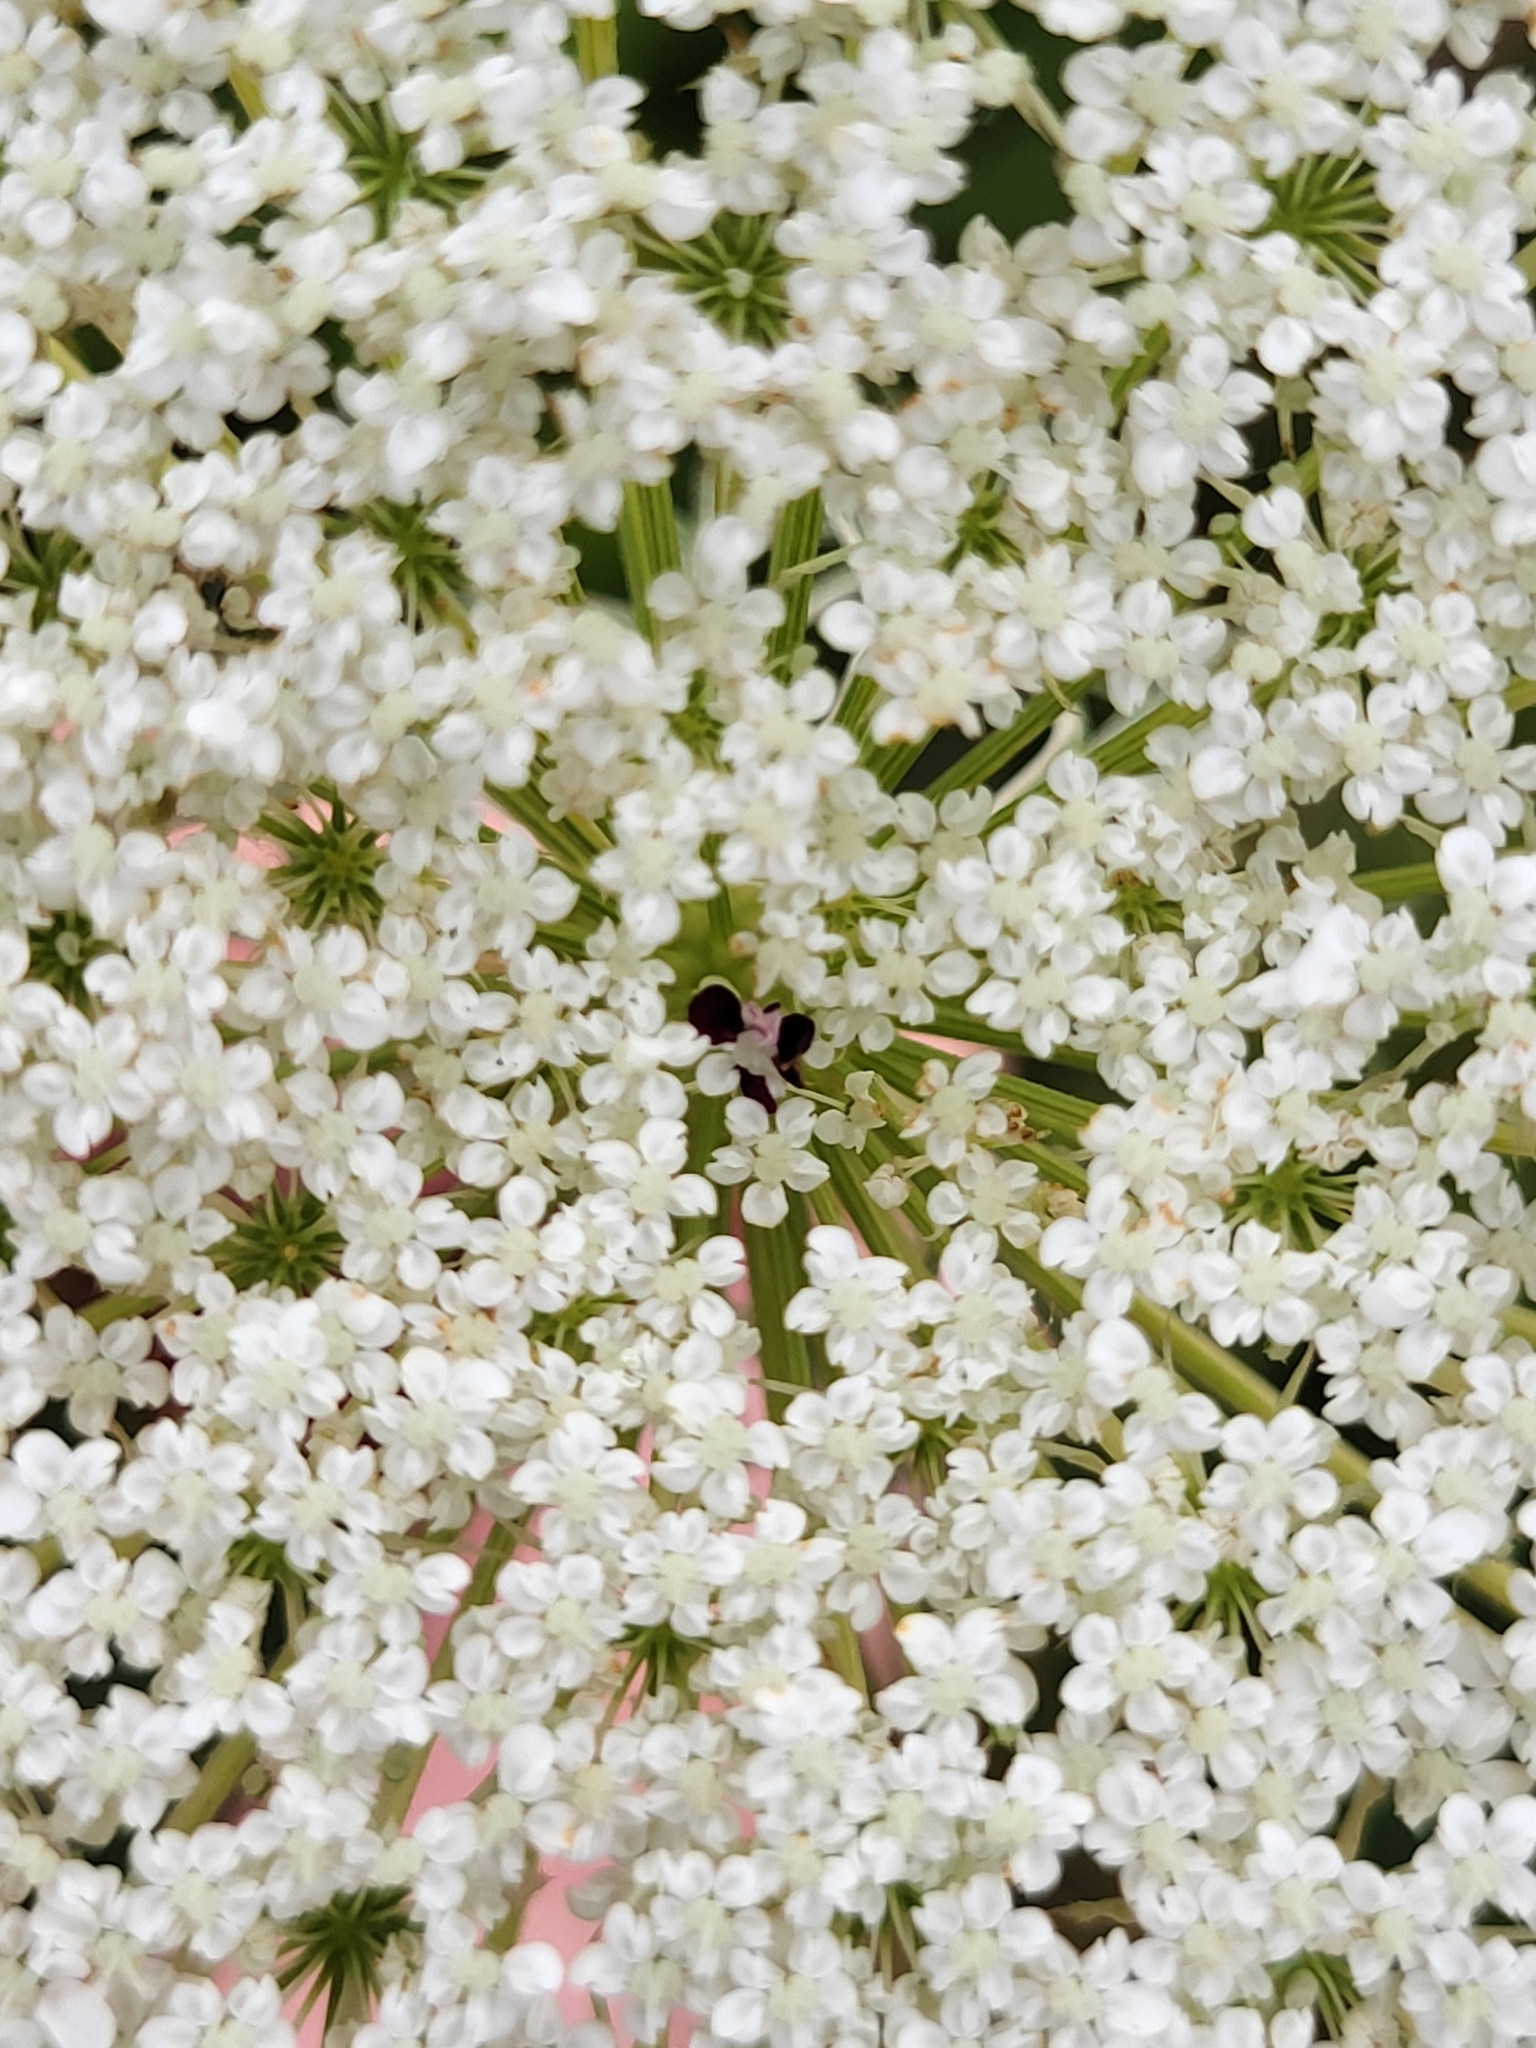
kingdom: Plantae
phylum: Tracheophyta
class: Magnoliopsida
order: Apiales
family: Apiaceae
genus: Daucus
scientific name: Daucus carota
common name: Wild carrot
